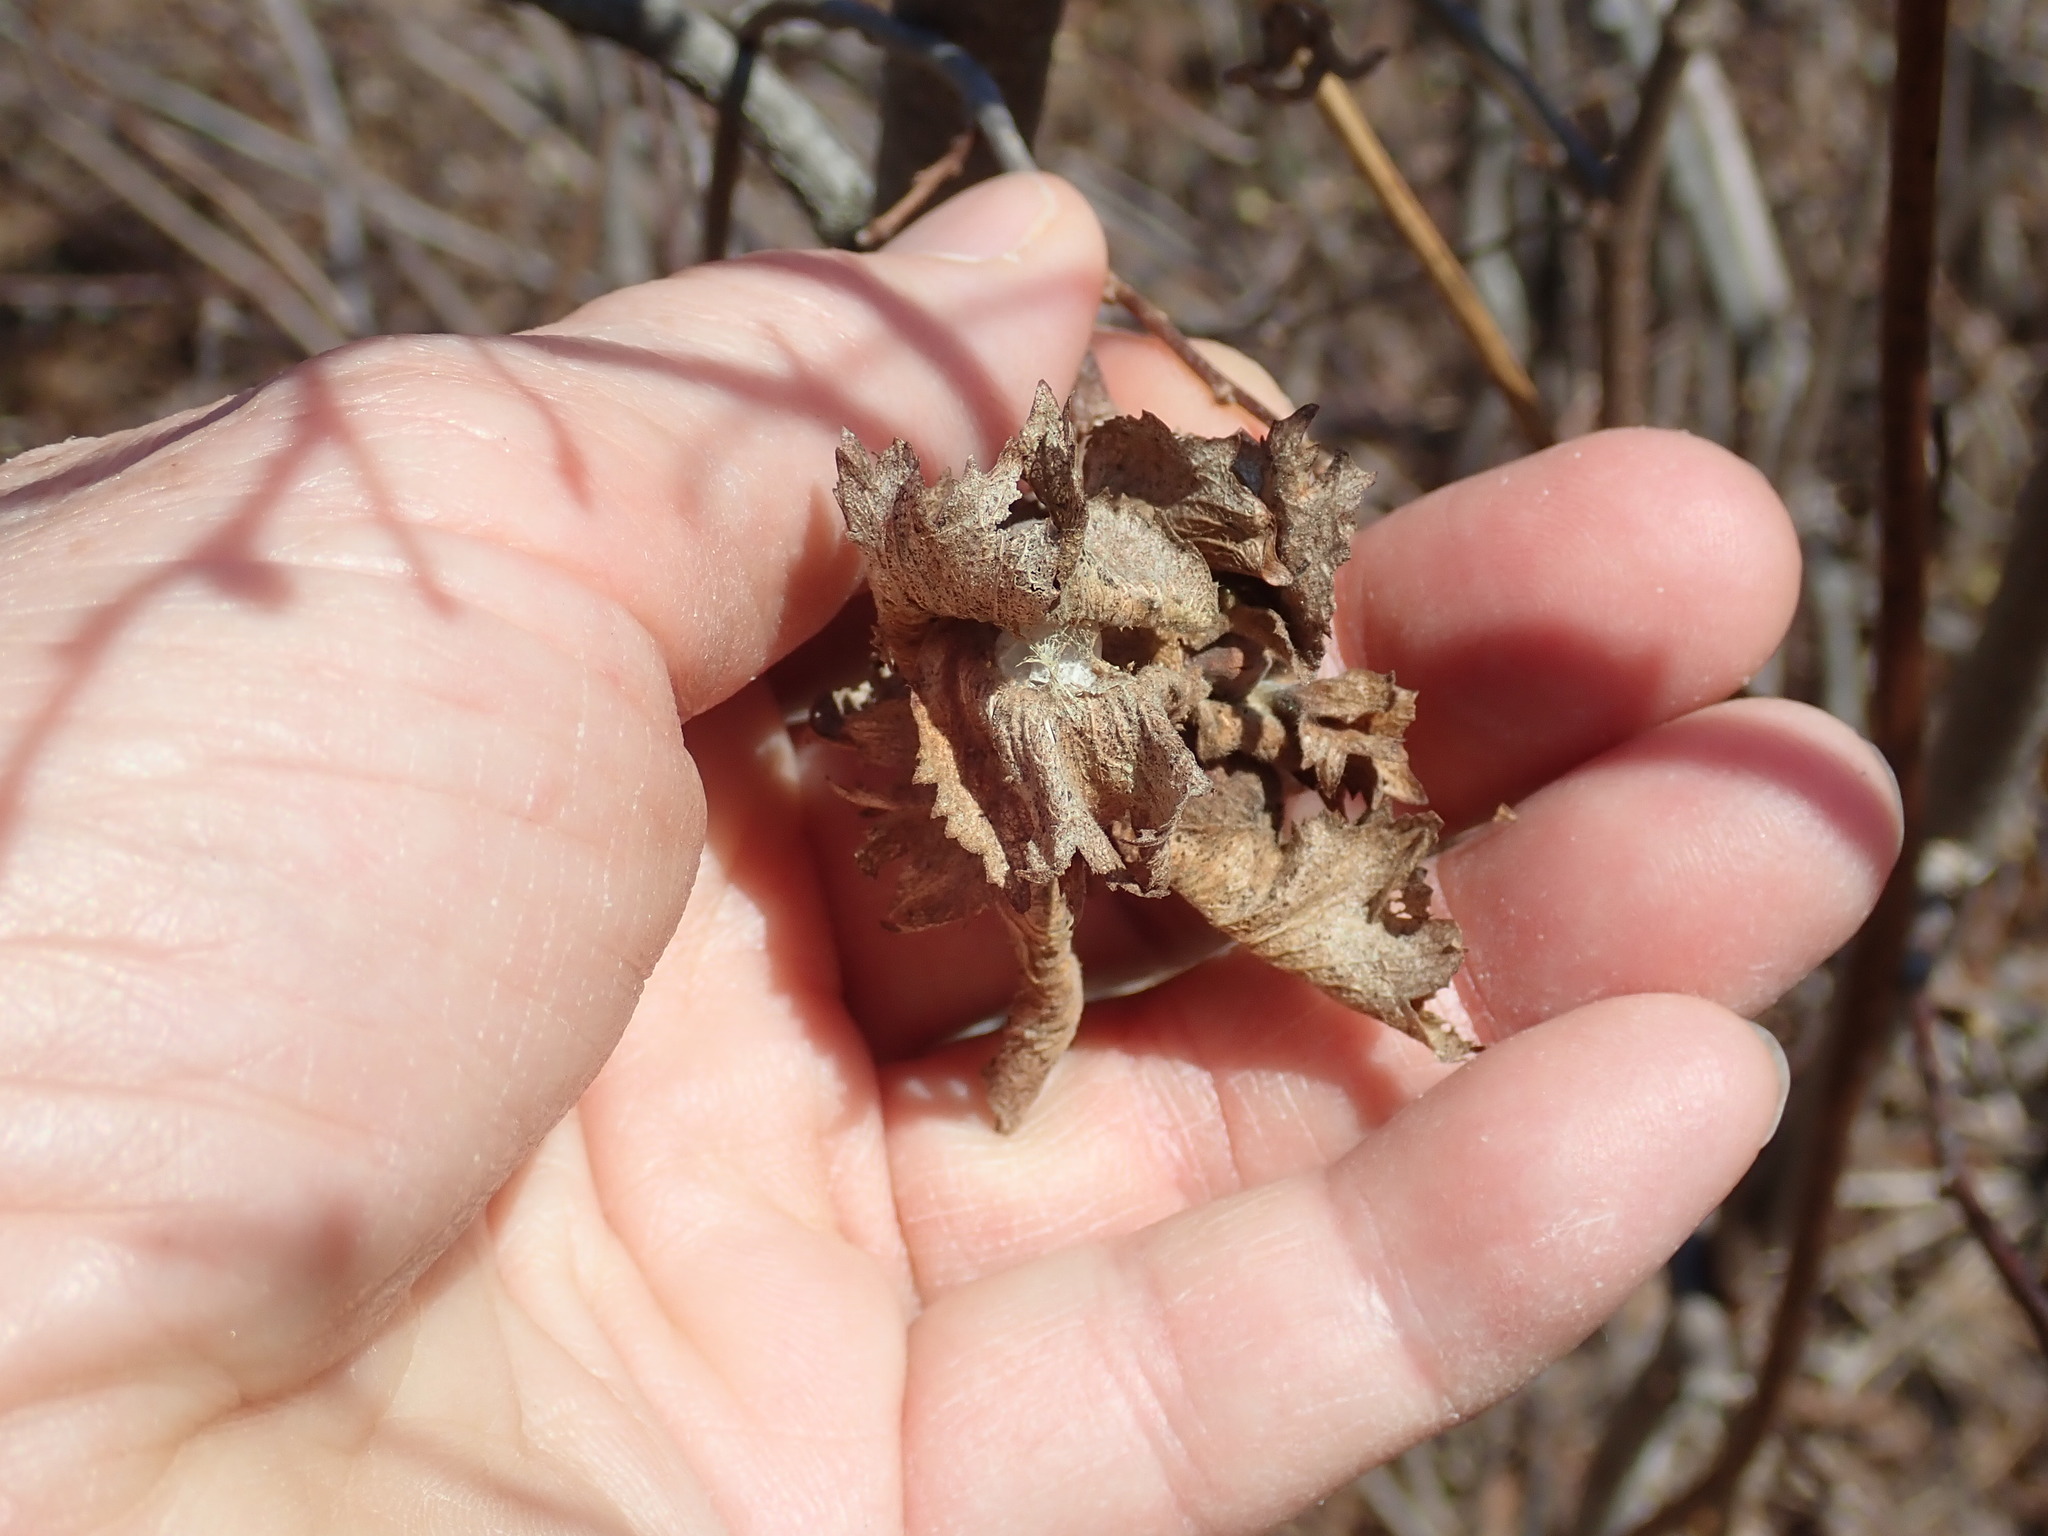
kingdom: Plantae
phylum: Tracheophyta
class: Magnoliopsida
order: Fagales
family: Betulaceae
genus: Corylus
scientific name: Corylus americana
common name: American hazel
